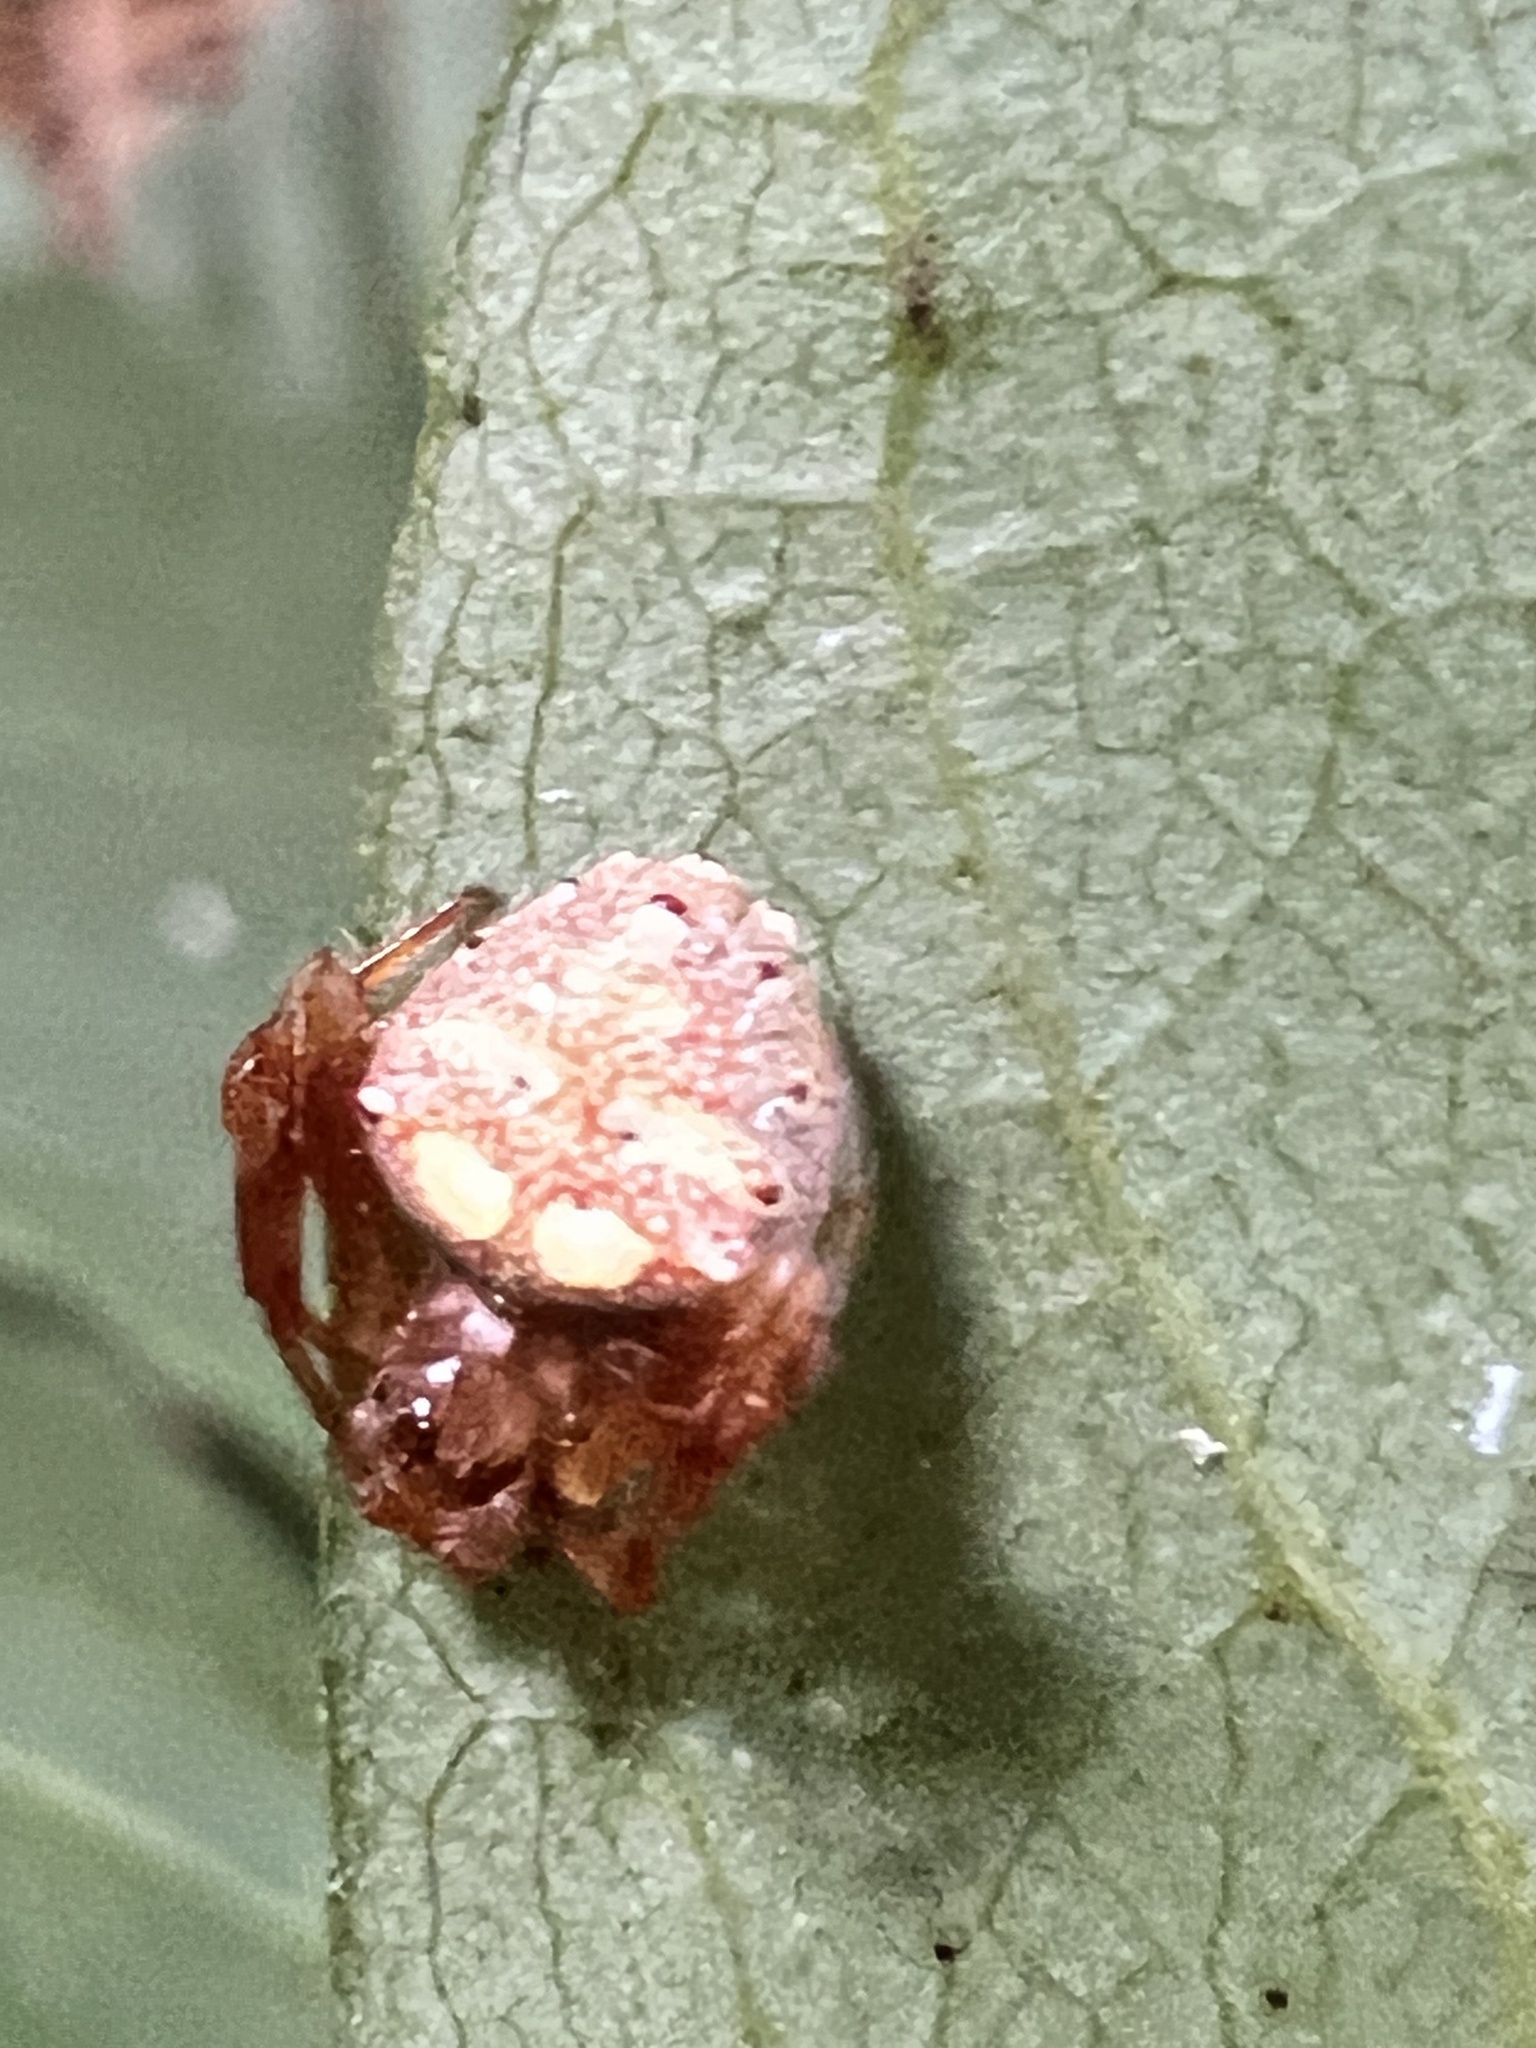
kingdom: Animalia
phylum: Arthropoda
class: Arachnida
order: Araneae
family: Araneidae
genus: Verrucosa
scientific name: Verrucosa arenata
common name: Orb weavers
